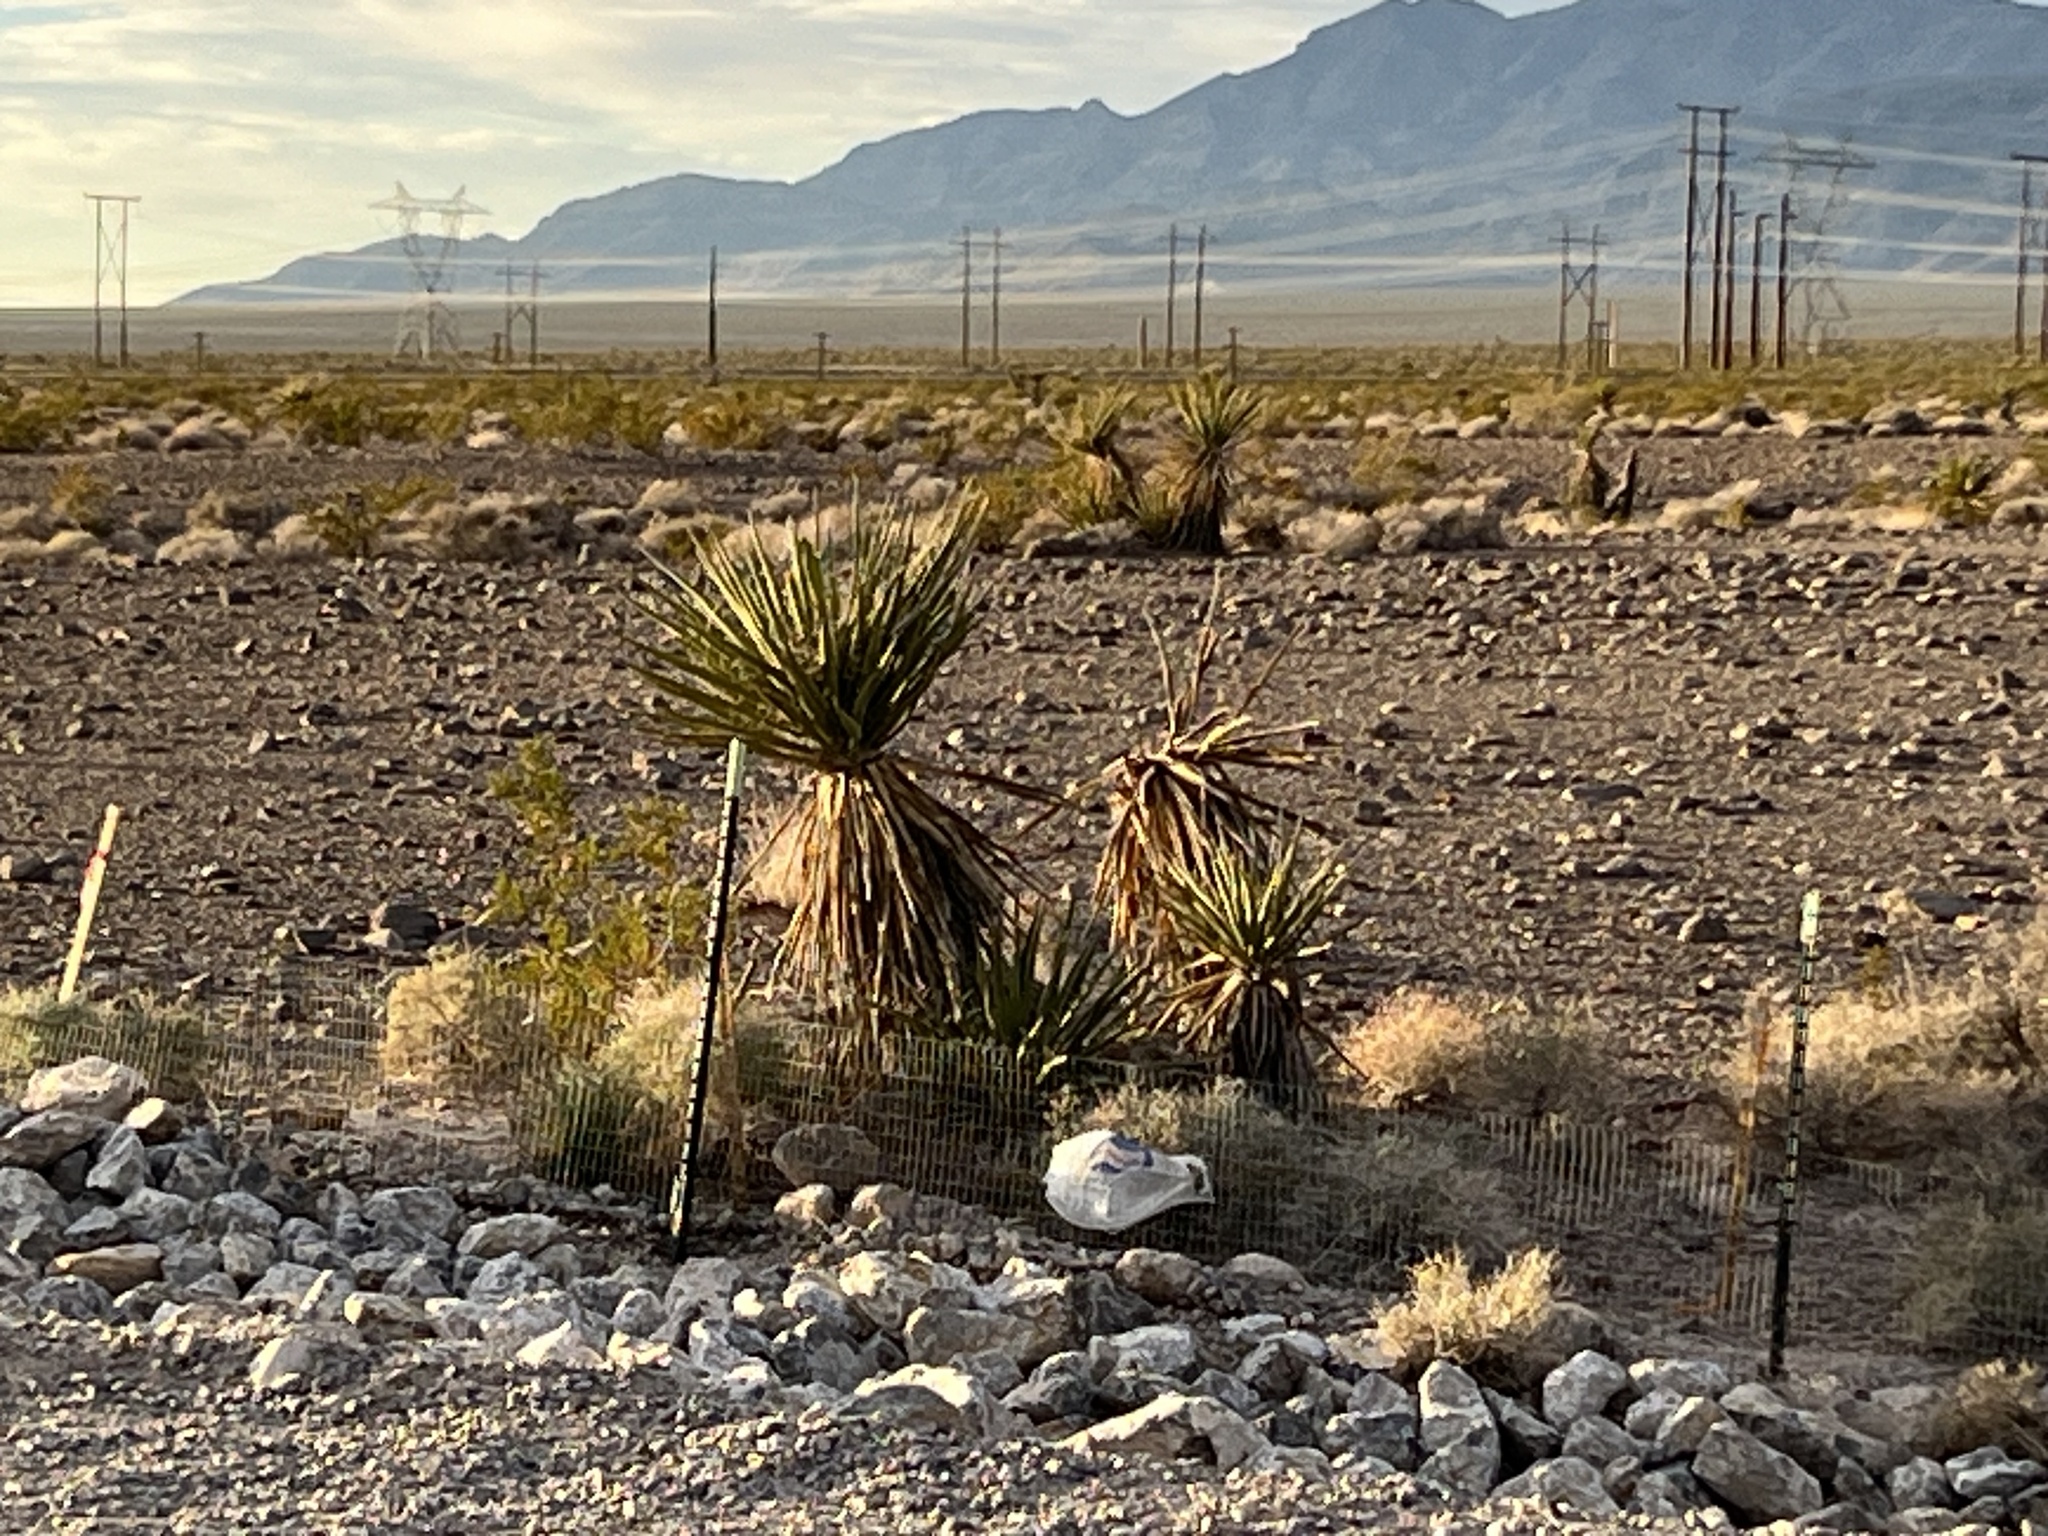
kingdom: Plantae
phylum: Tracheophyta
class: Liliopsida
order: Asparagales
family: Asparagaceae
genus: Yucca
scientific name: Yucca schidigera
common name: Mojave yucca
